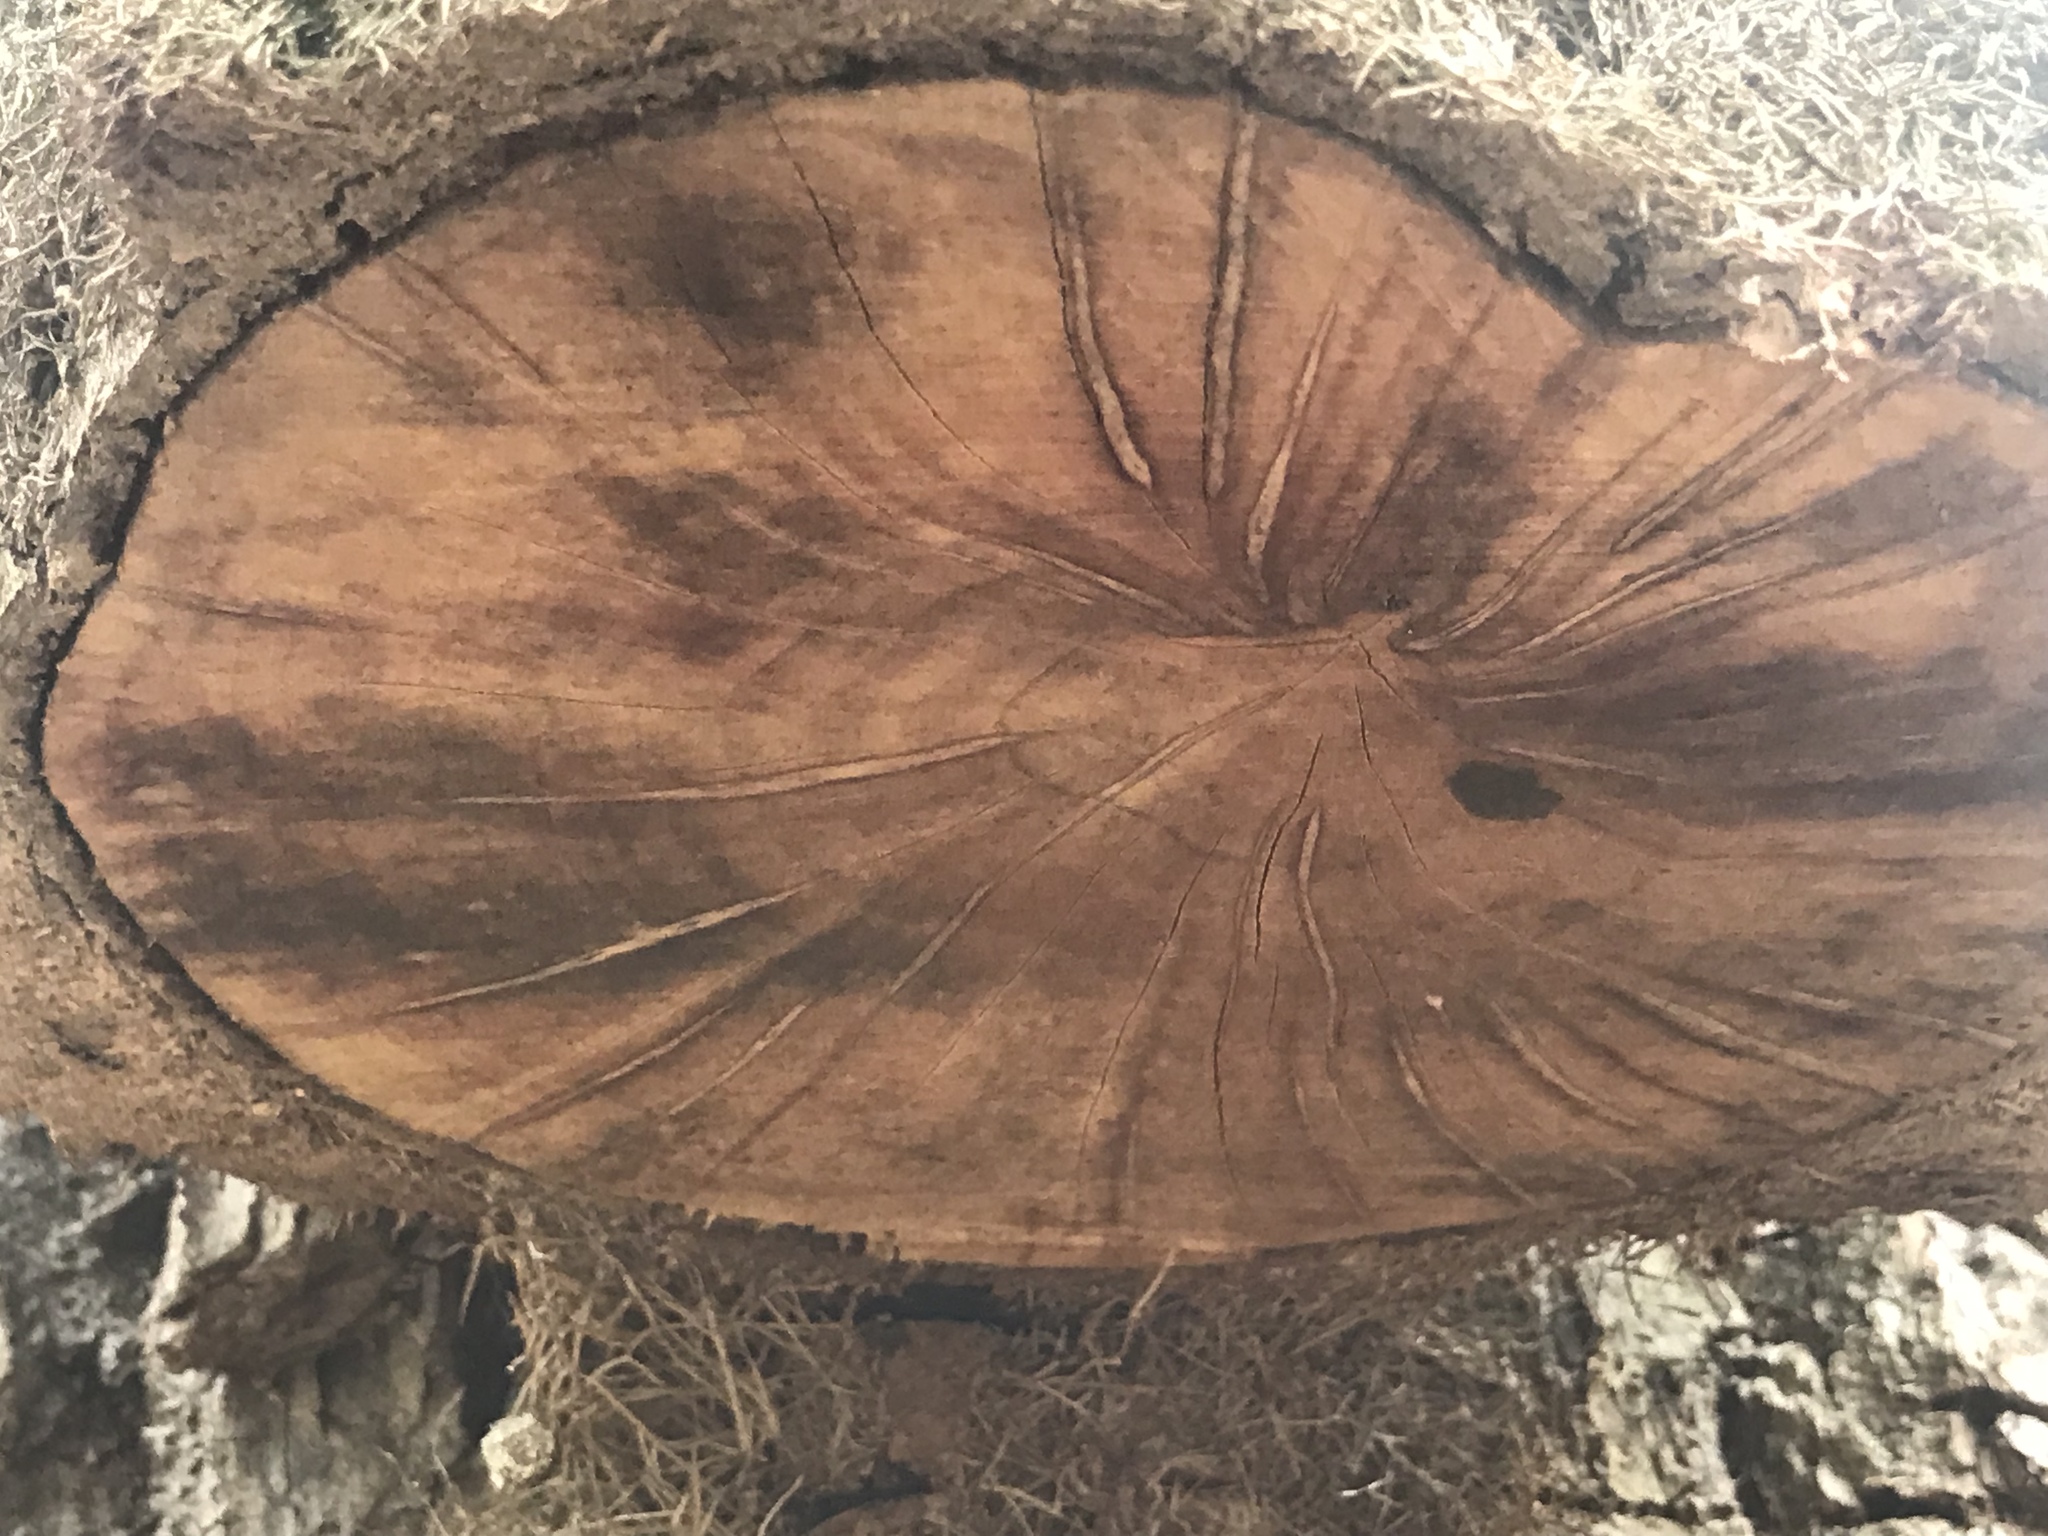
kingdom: Plantae
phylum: Tracheophyta
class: Magnoliopsida
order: Sapindales
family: Anacardiaceae
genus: Toxicodendron
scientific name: Toxicodendron radicans
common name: Poison ivy
